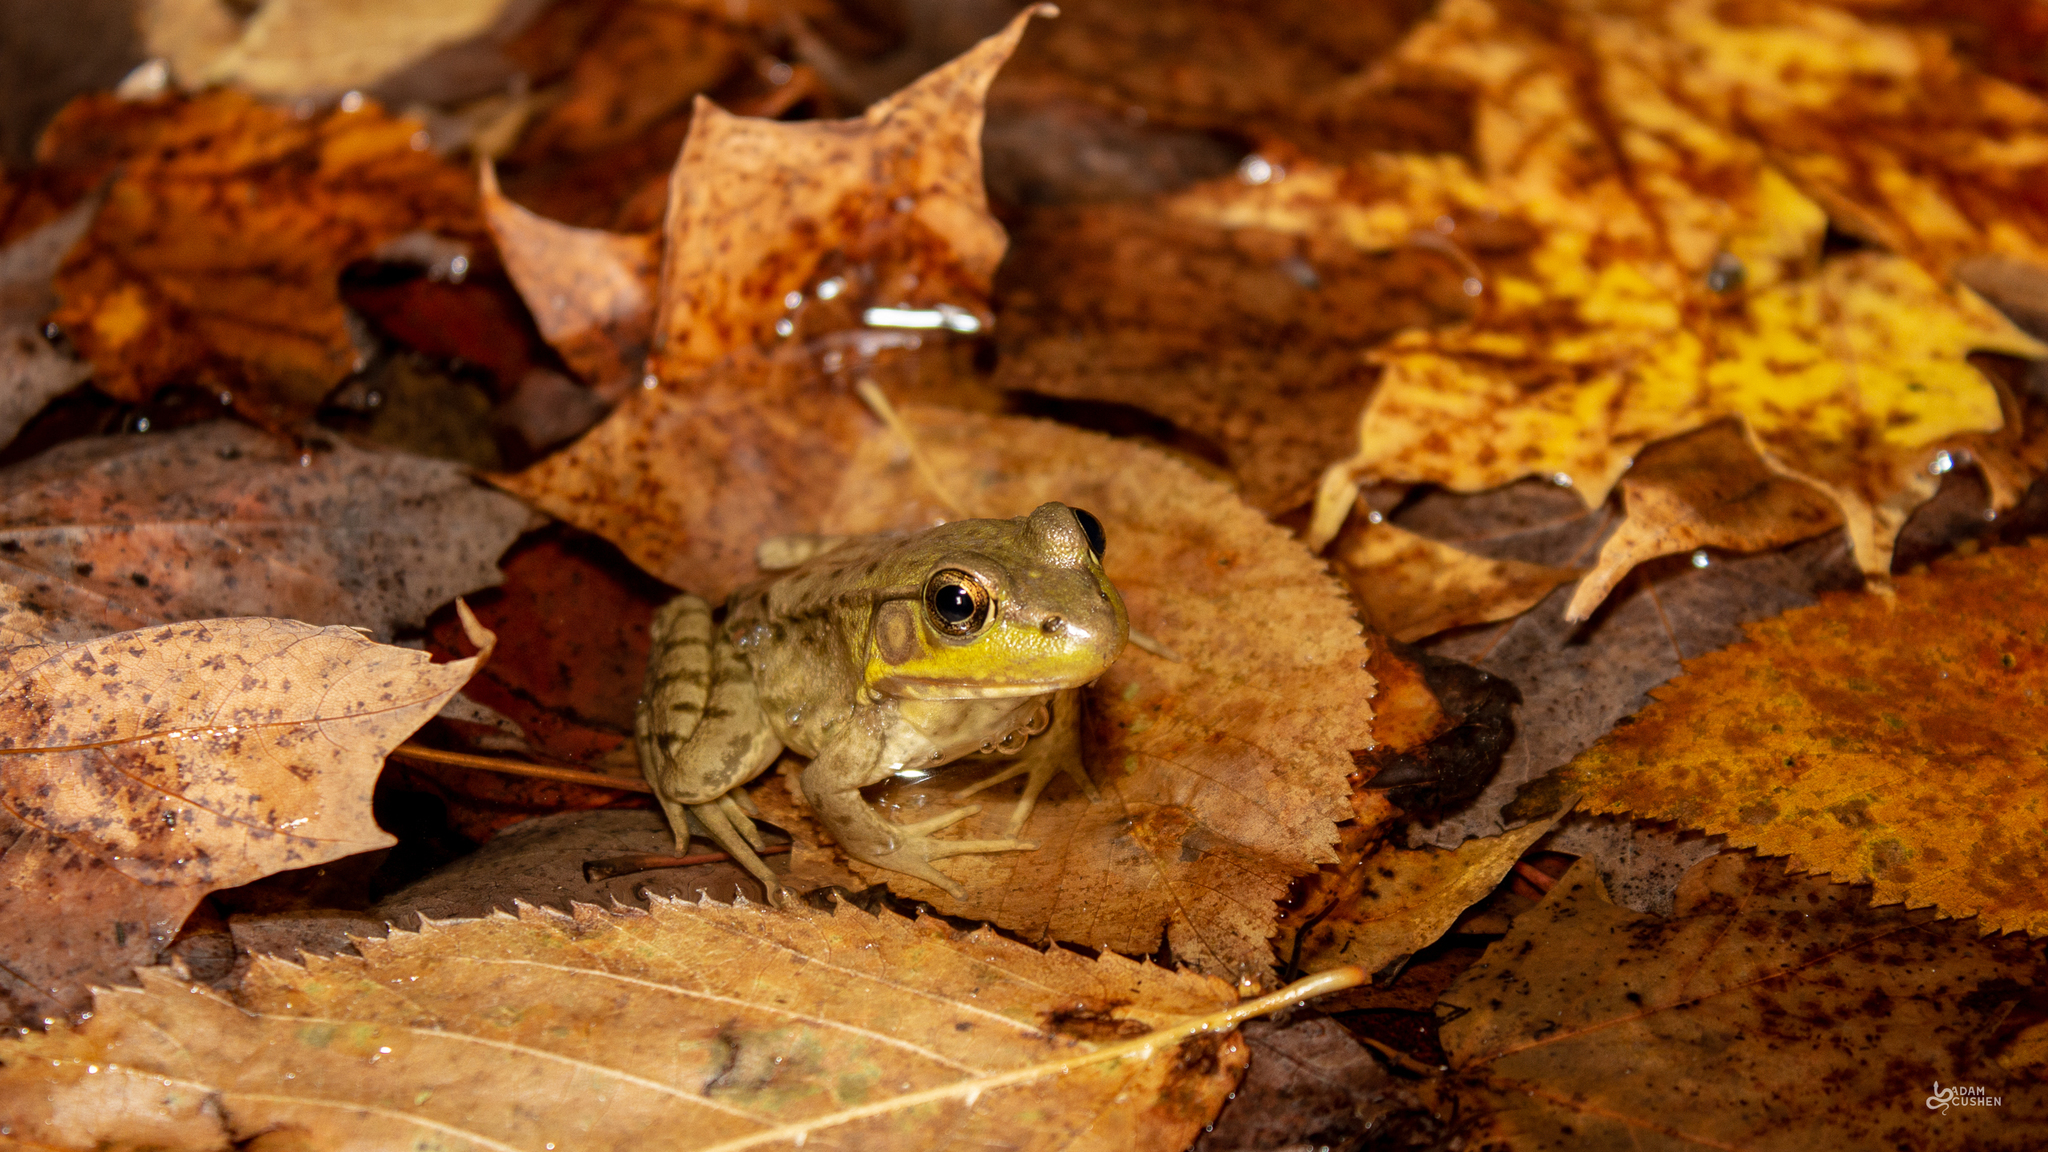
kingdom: Animalia
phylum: Chordata
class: Amphibia
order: Anura
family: Ranidae
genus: Lithobates
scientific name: Lithobates clamitans
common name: Green frog
